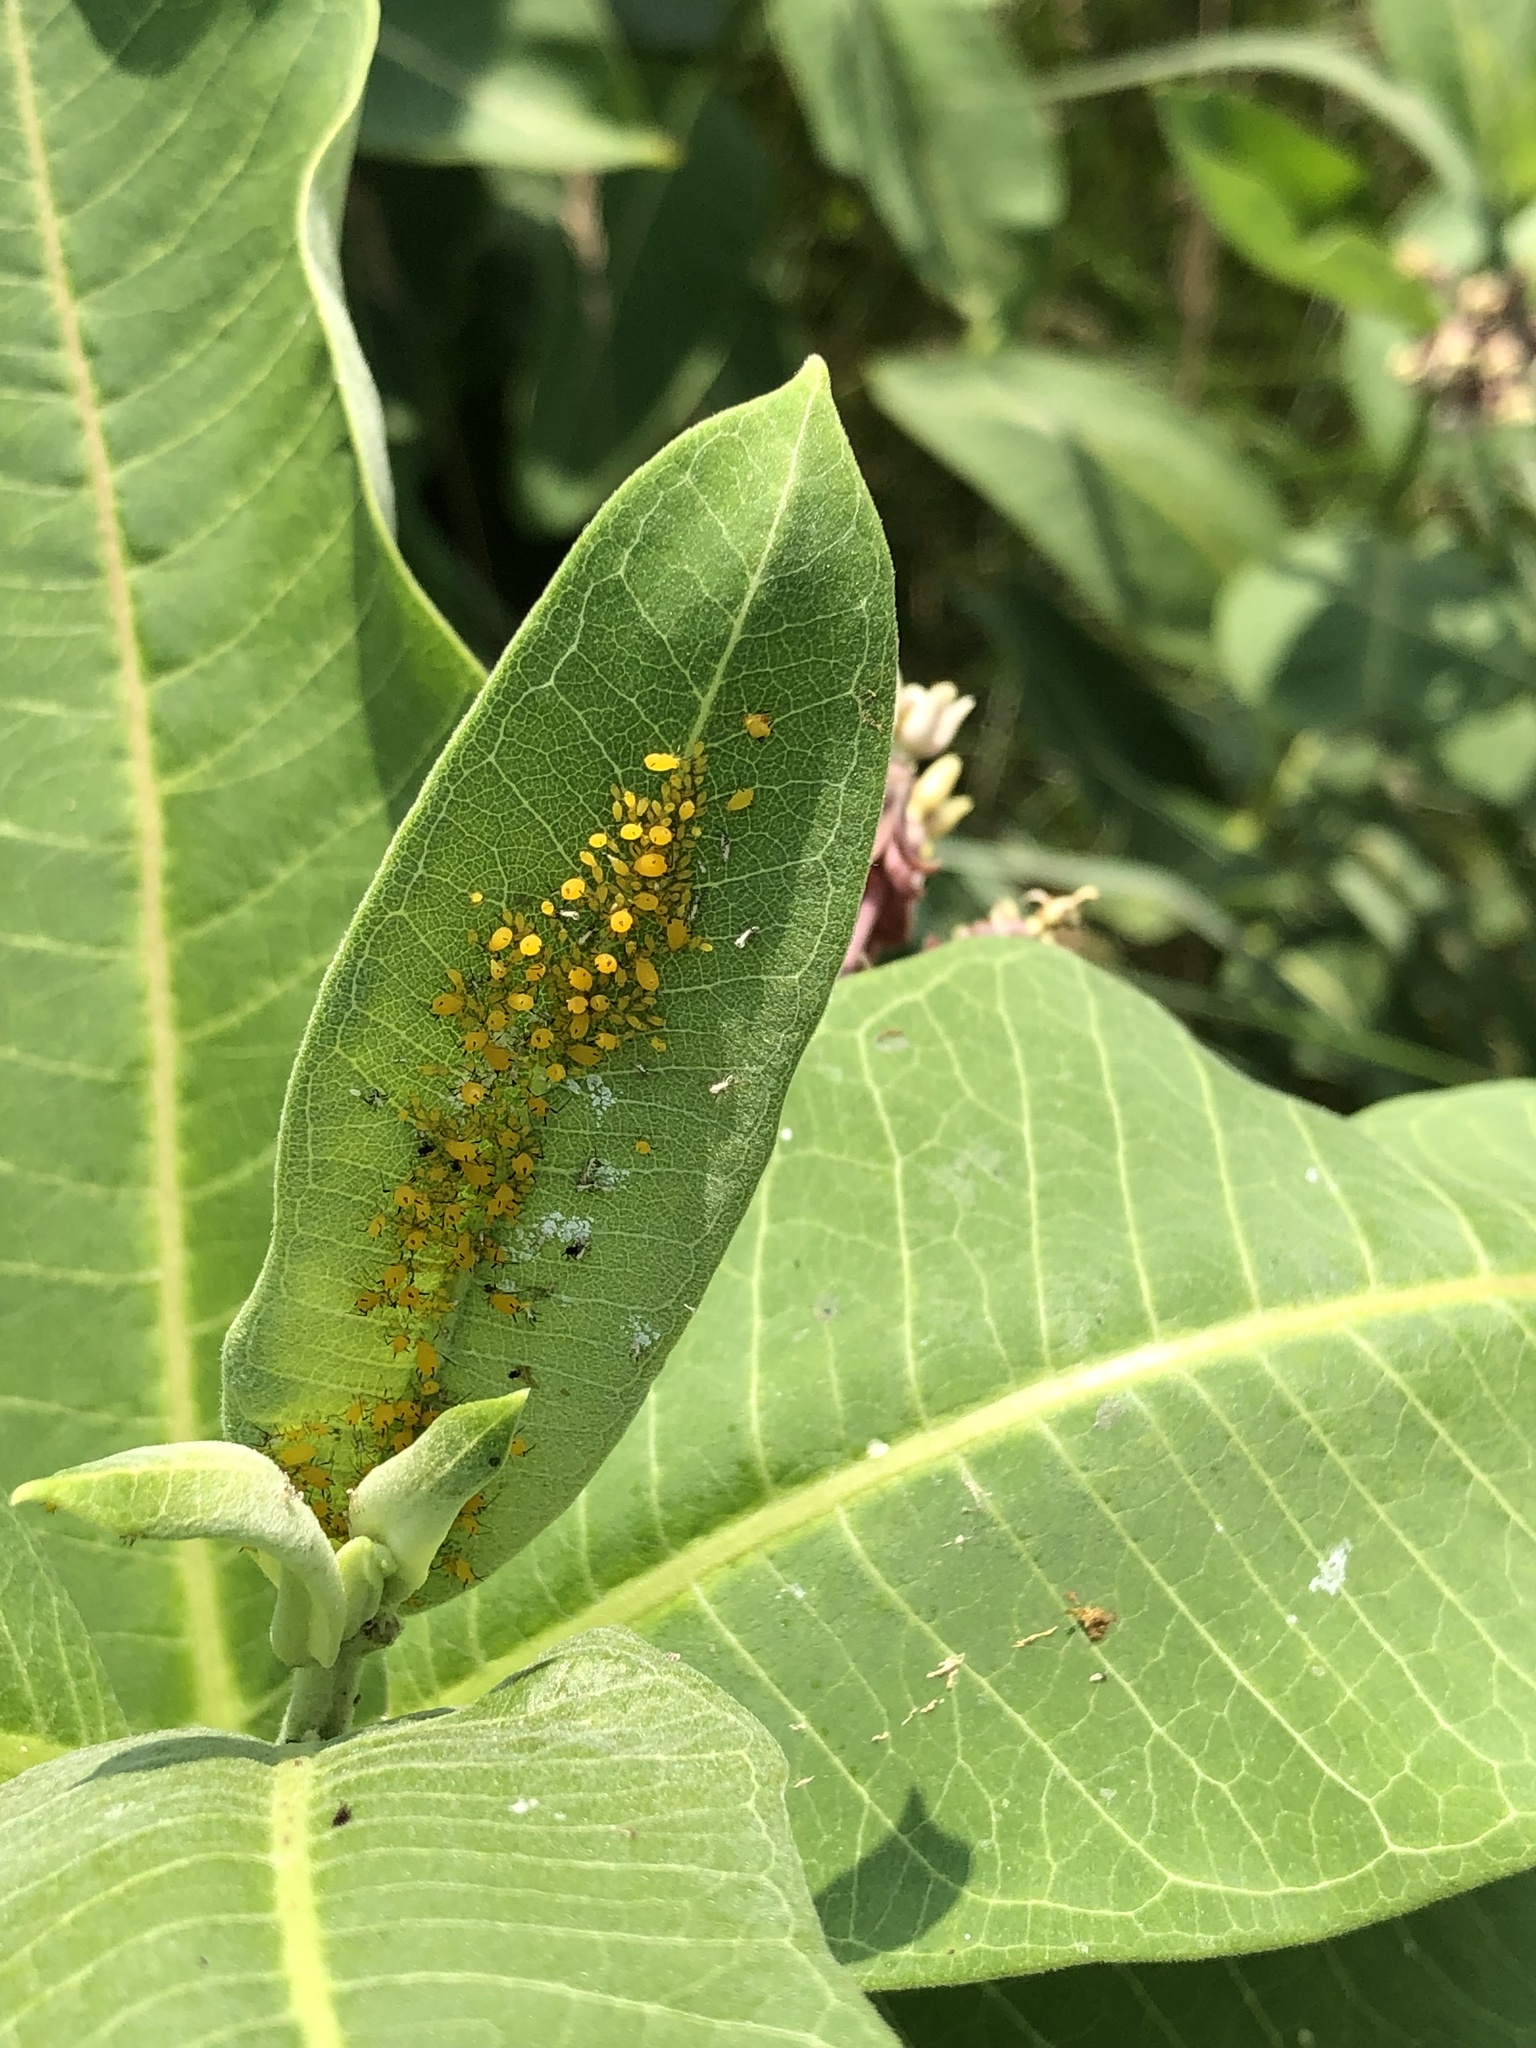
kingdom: Animalia
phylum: Arthropoda
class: Insecta
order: Hemiptera
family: Aphididae
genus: Aphis
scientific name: Aphis nerii
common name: Oleander aphid
